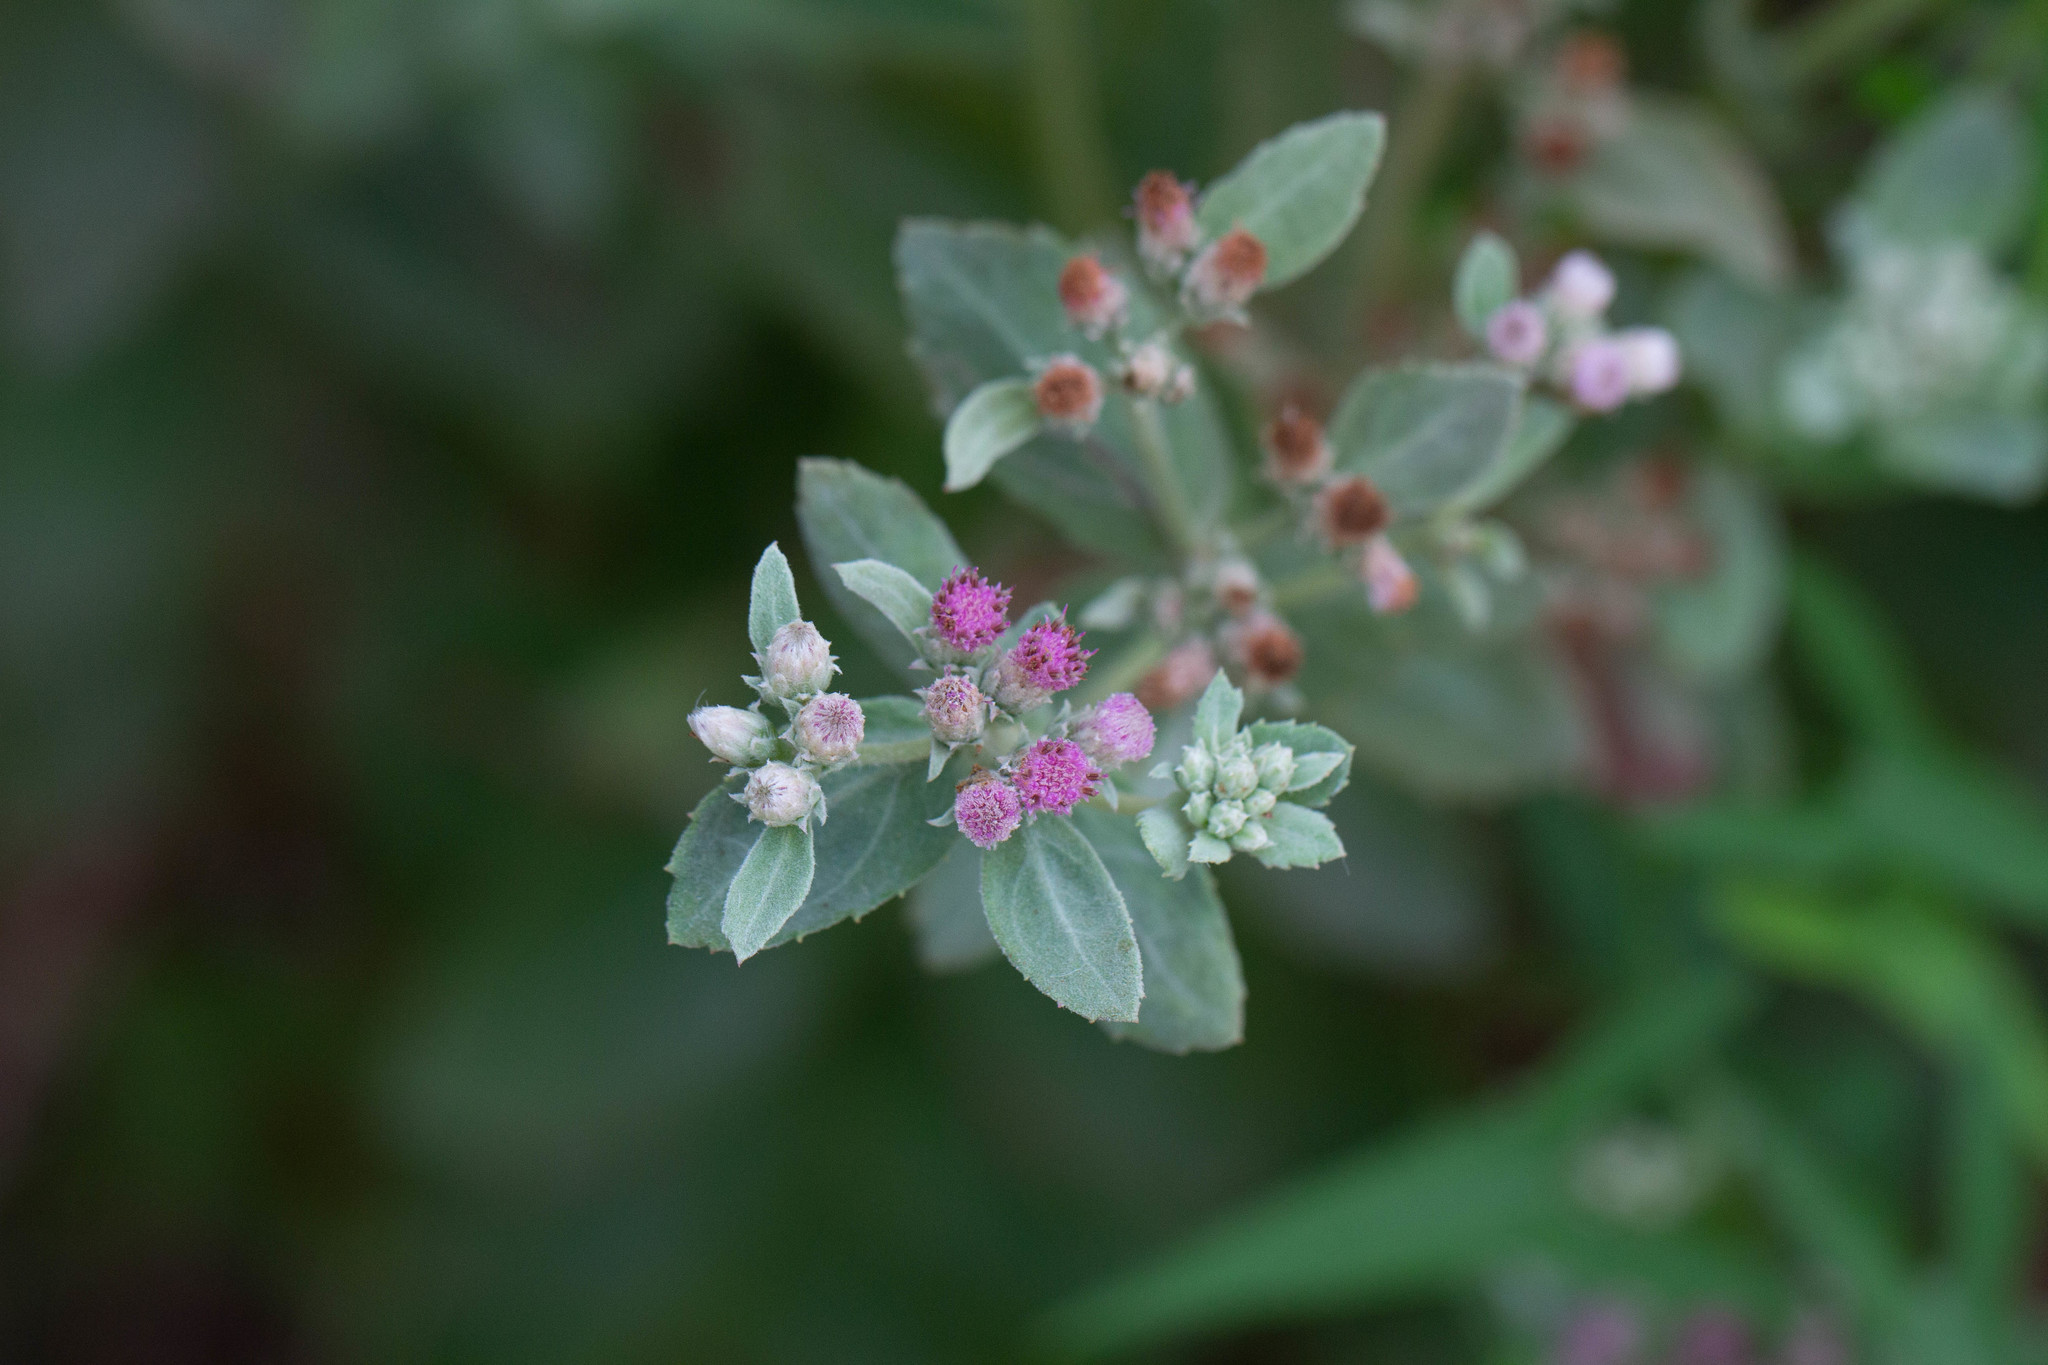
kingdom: Plantae
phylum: Tracheophyta
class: Magnoliopsida
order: Asterales
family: Asteraceae
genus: Pluchea
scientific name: Pluchea baccharis
